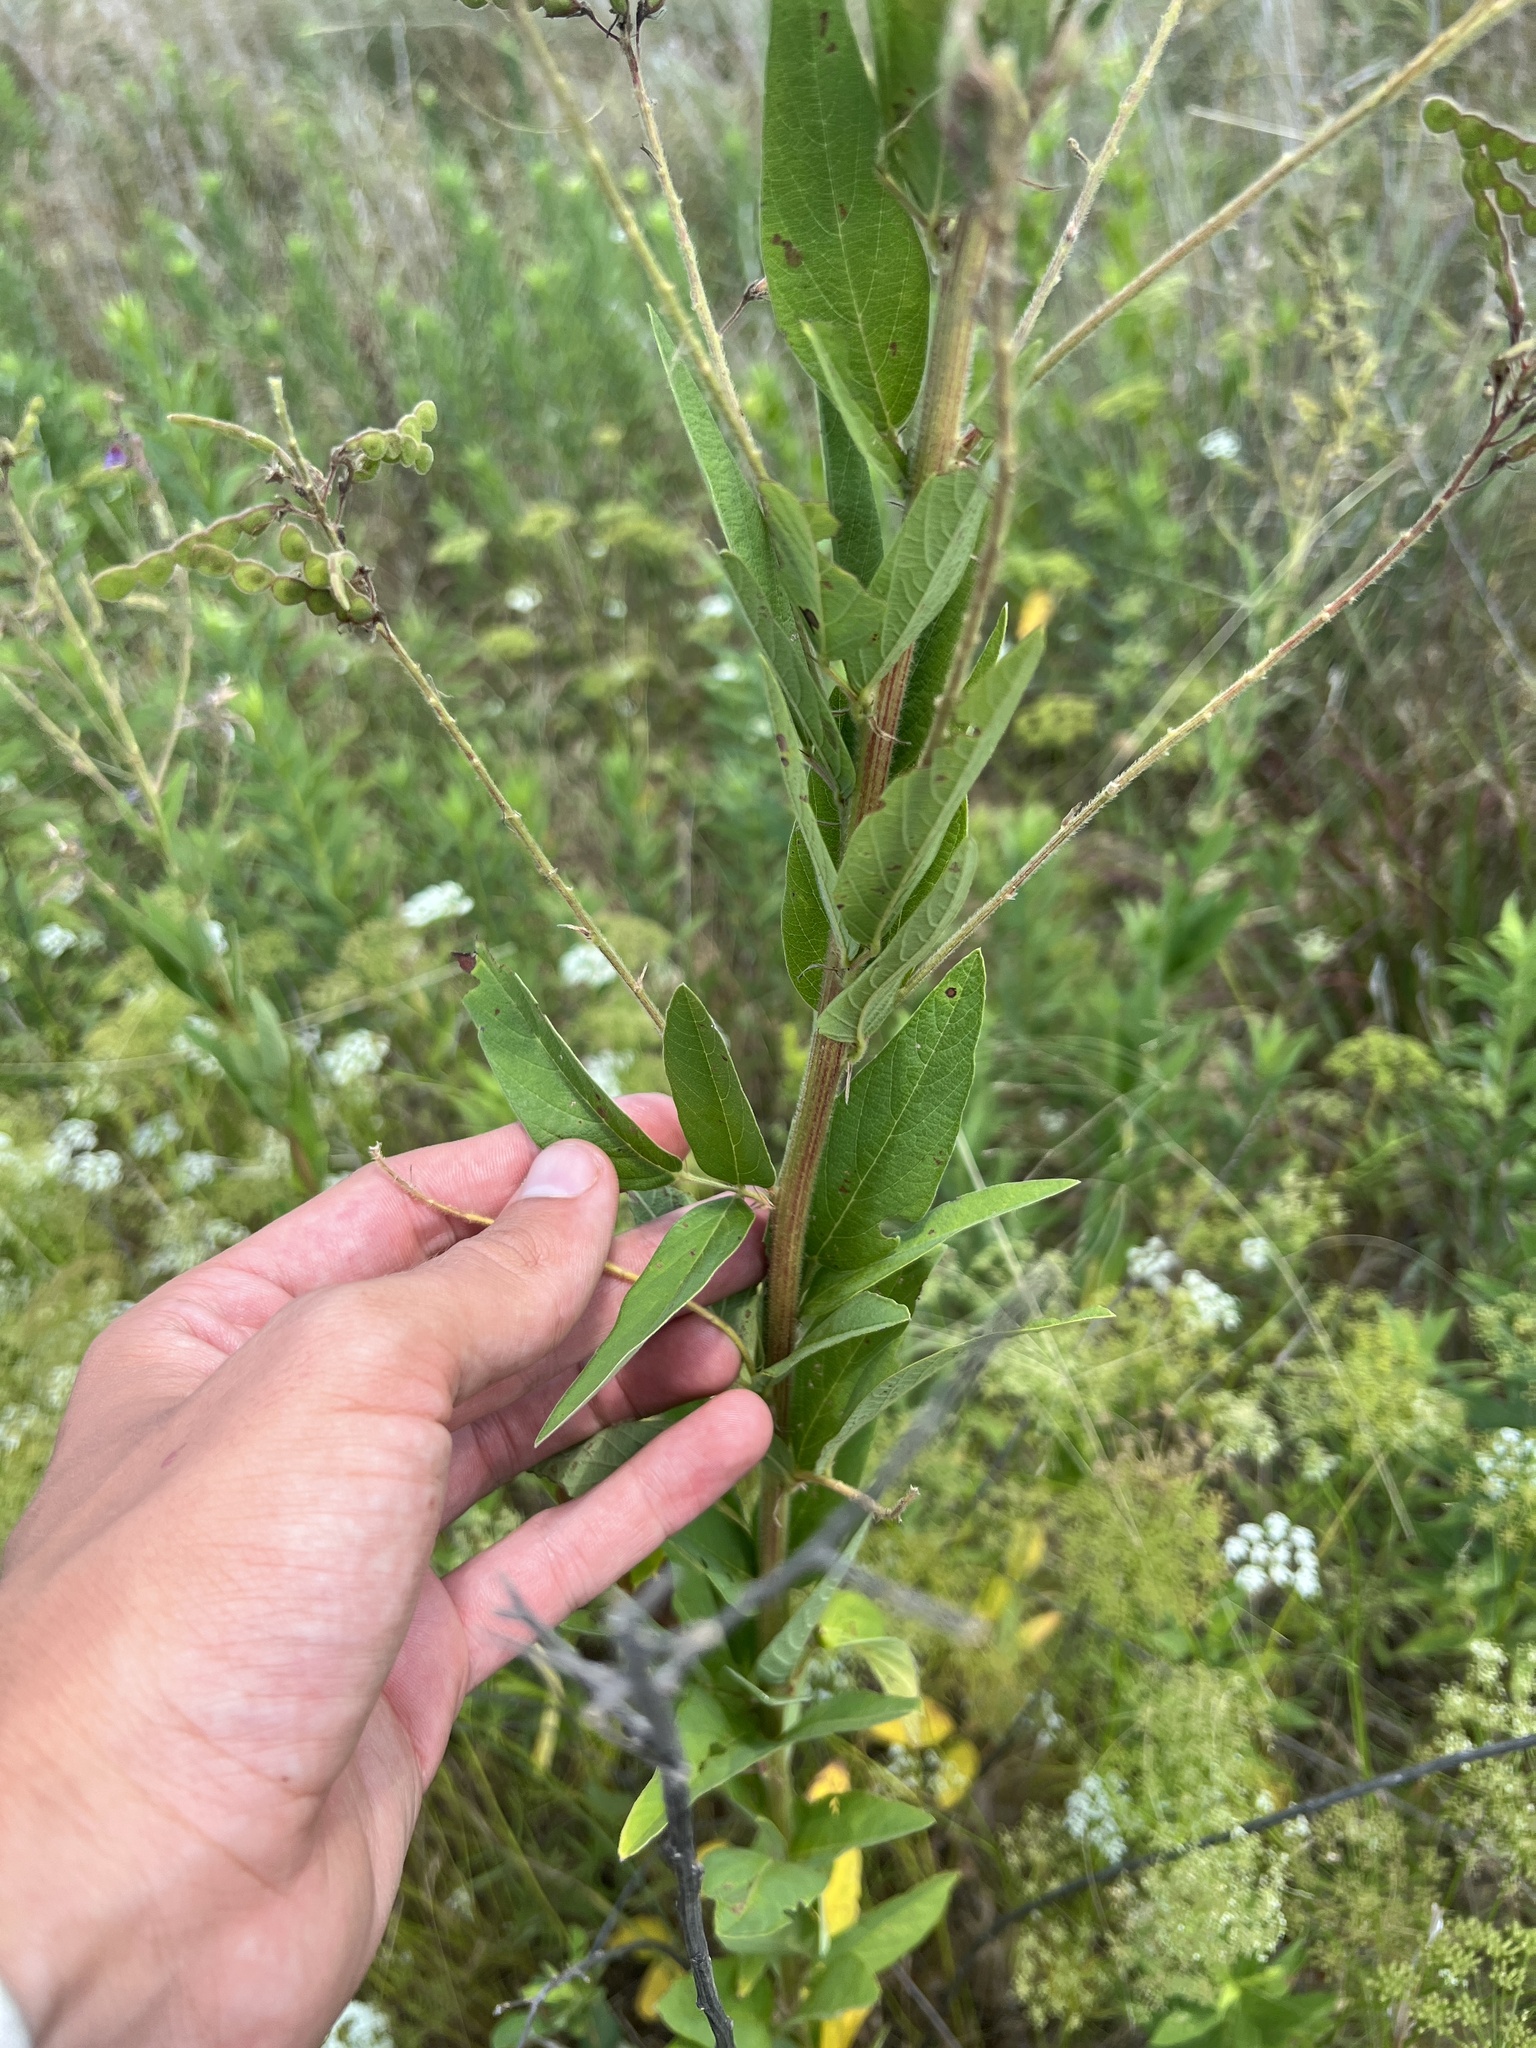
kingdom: Plantae
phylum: Tracheophyta
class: Magnoliopsida
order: Fabales
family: Fabaceae
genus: Desmodium
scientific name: Desmodium canadense
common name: Canada tick-trefoil
